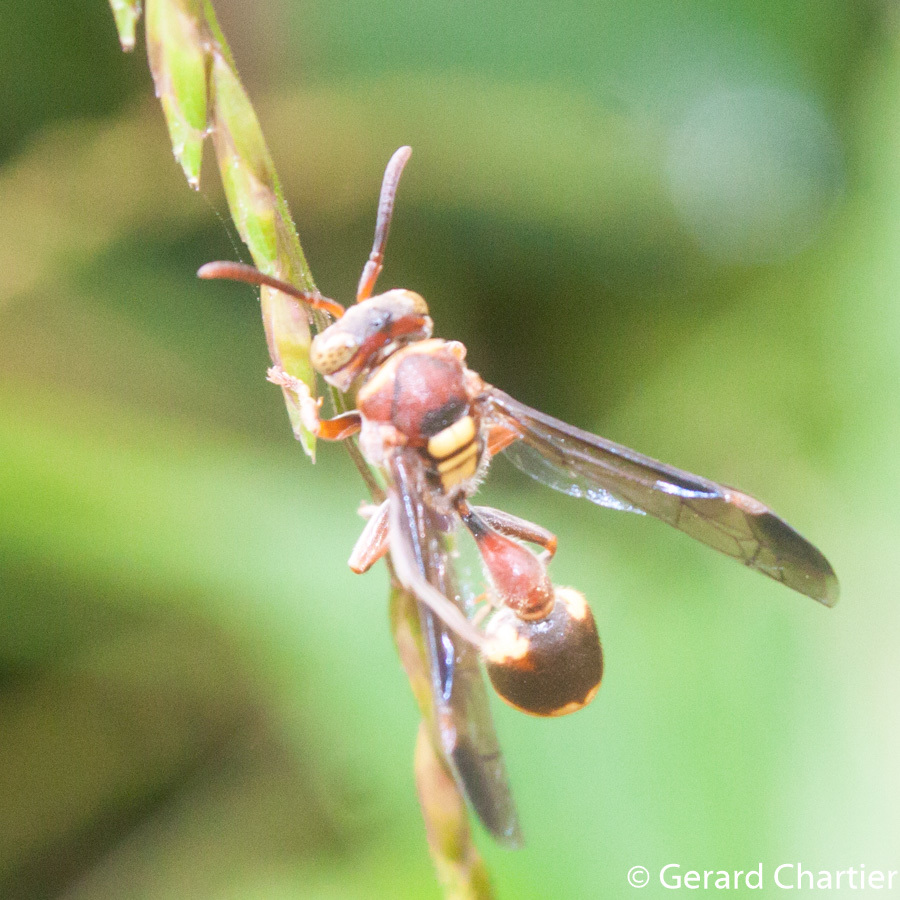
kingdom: Animalia
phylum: Arthropoda
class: Insecta
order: Hymenoptera
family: Vespidae
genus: Ropalidia
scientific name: Ropalidia stigma
